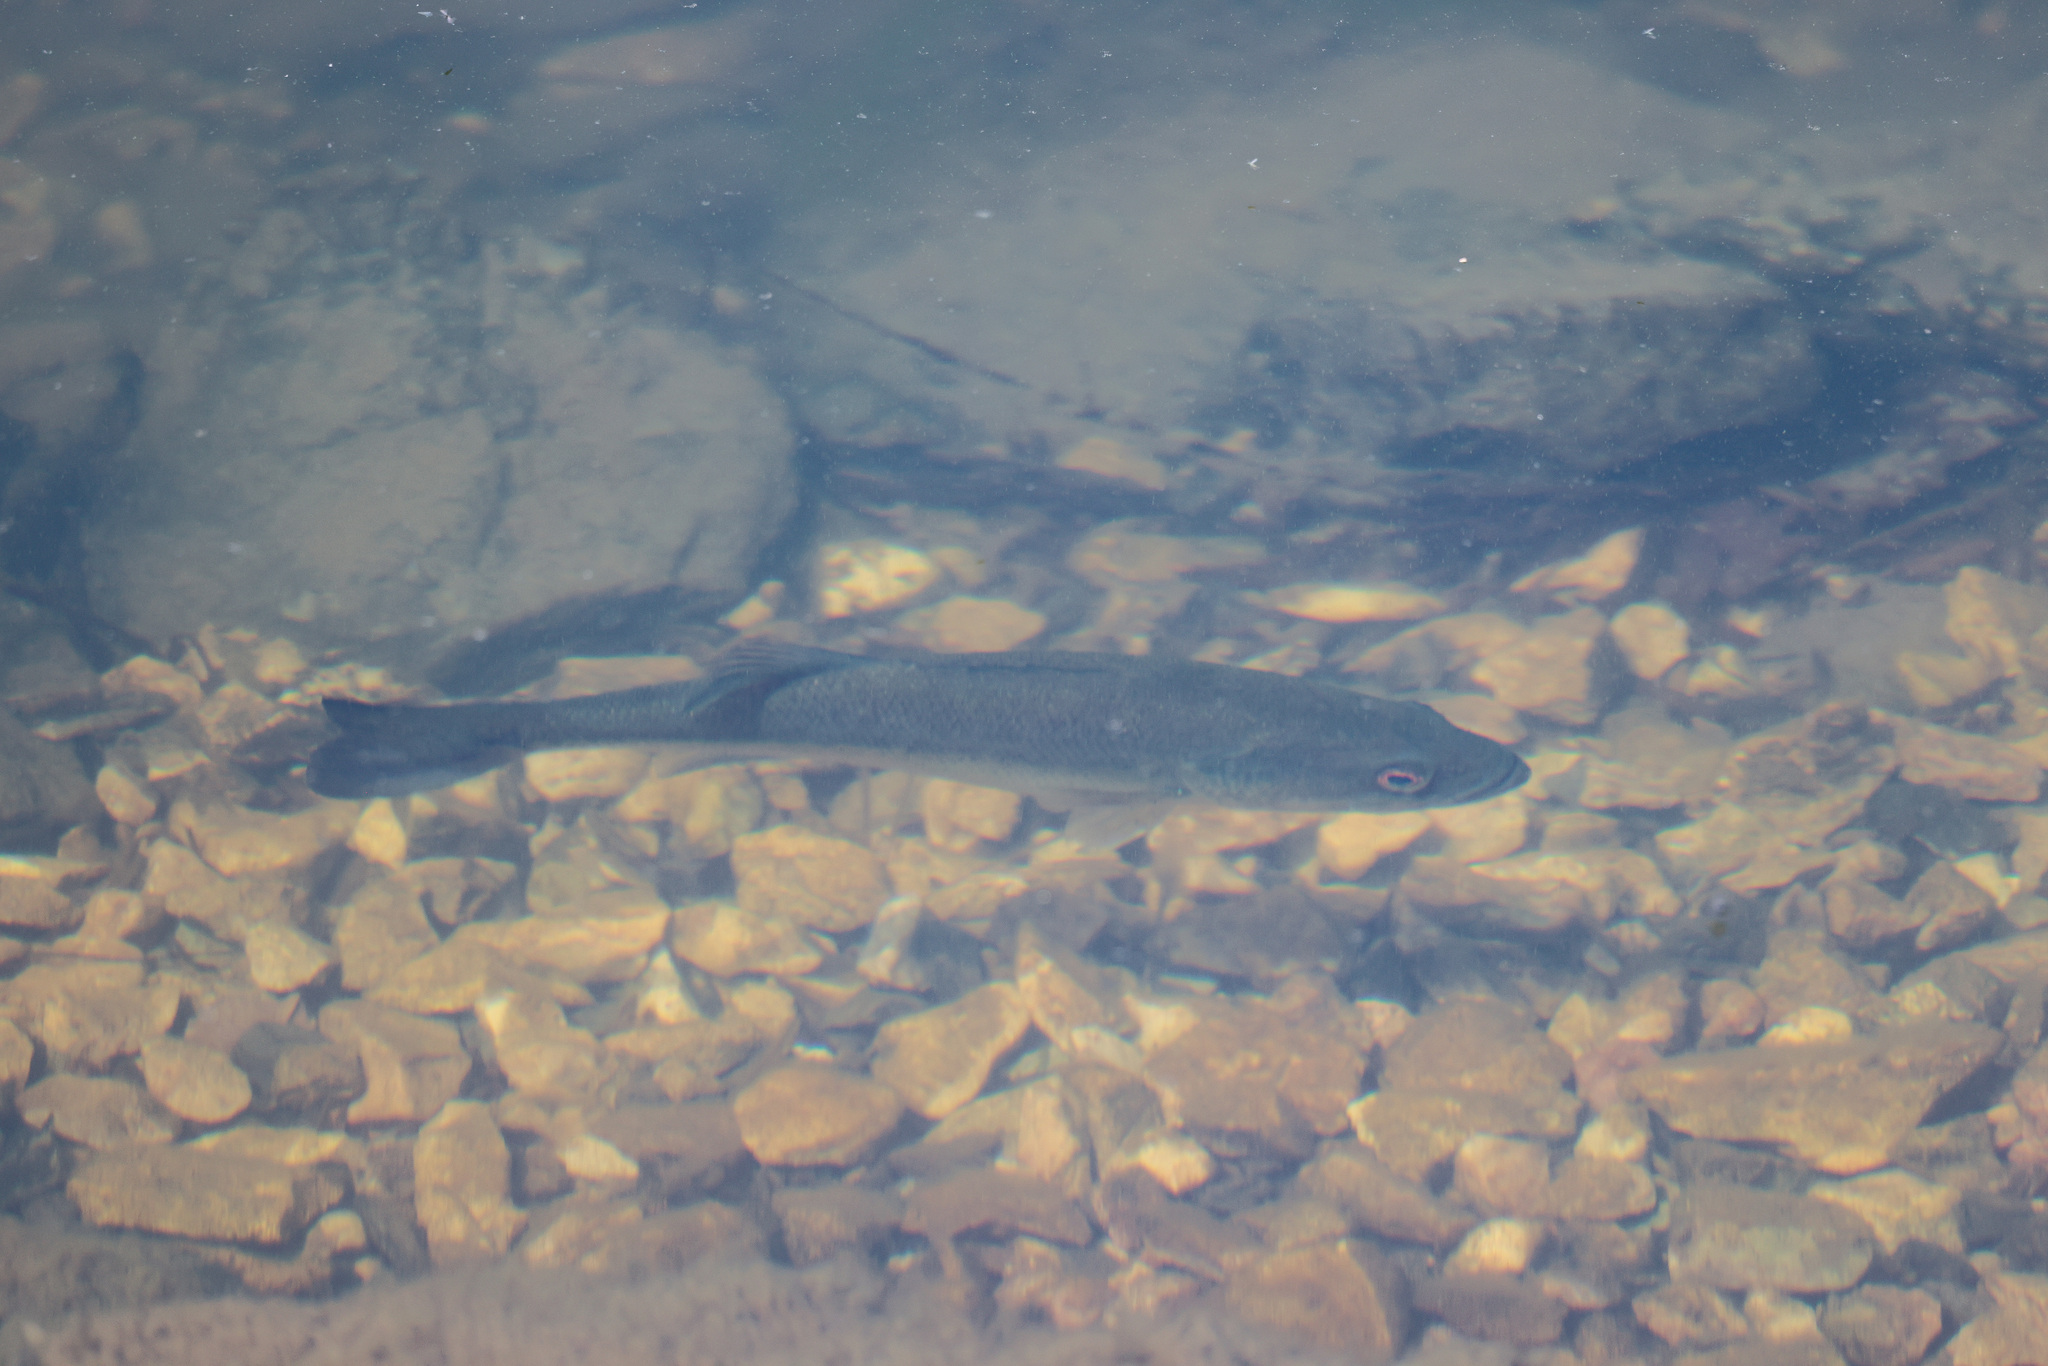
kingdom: Animalia
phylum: Chordata
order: Perciformes
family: Centrarchidae
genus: Micropterus
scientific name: Micropterus
